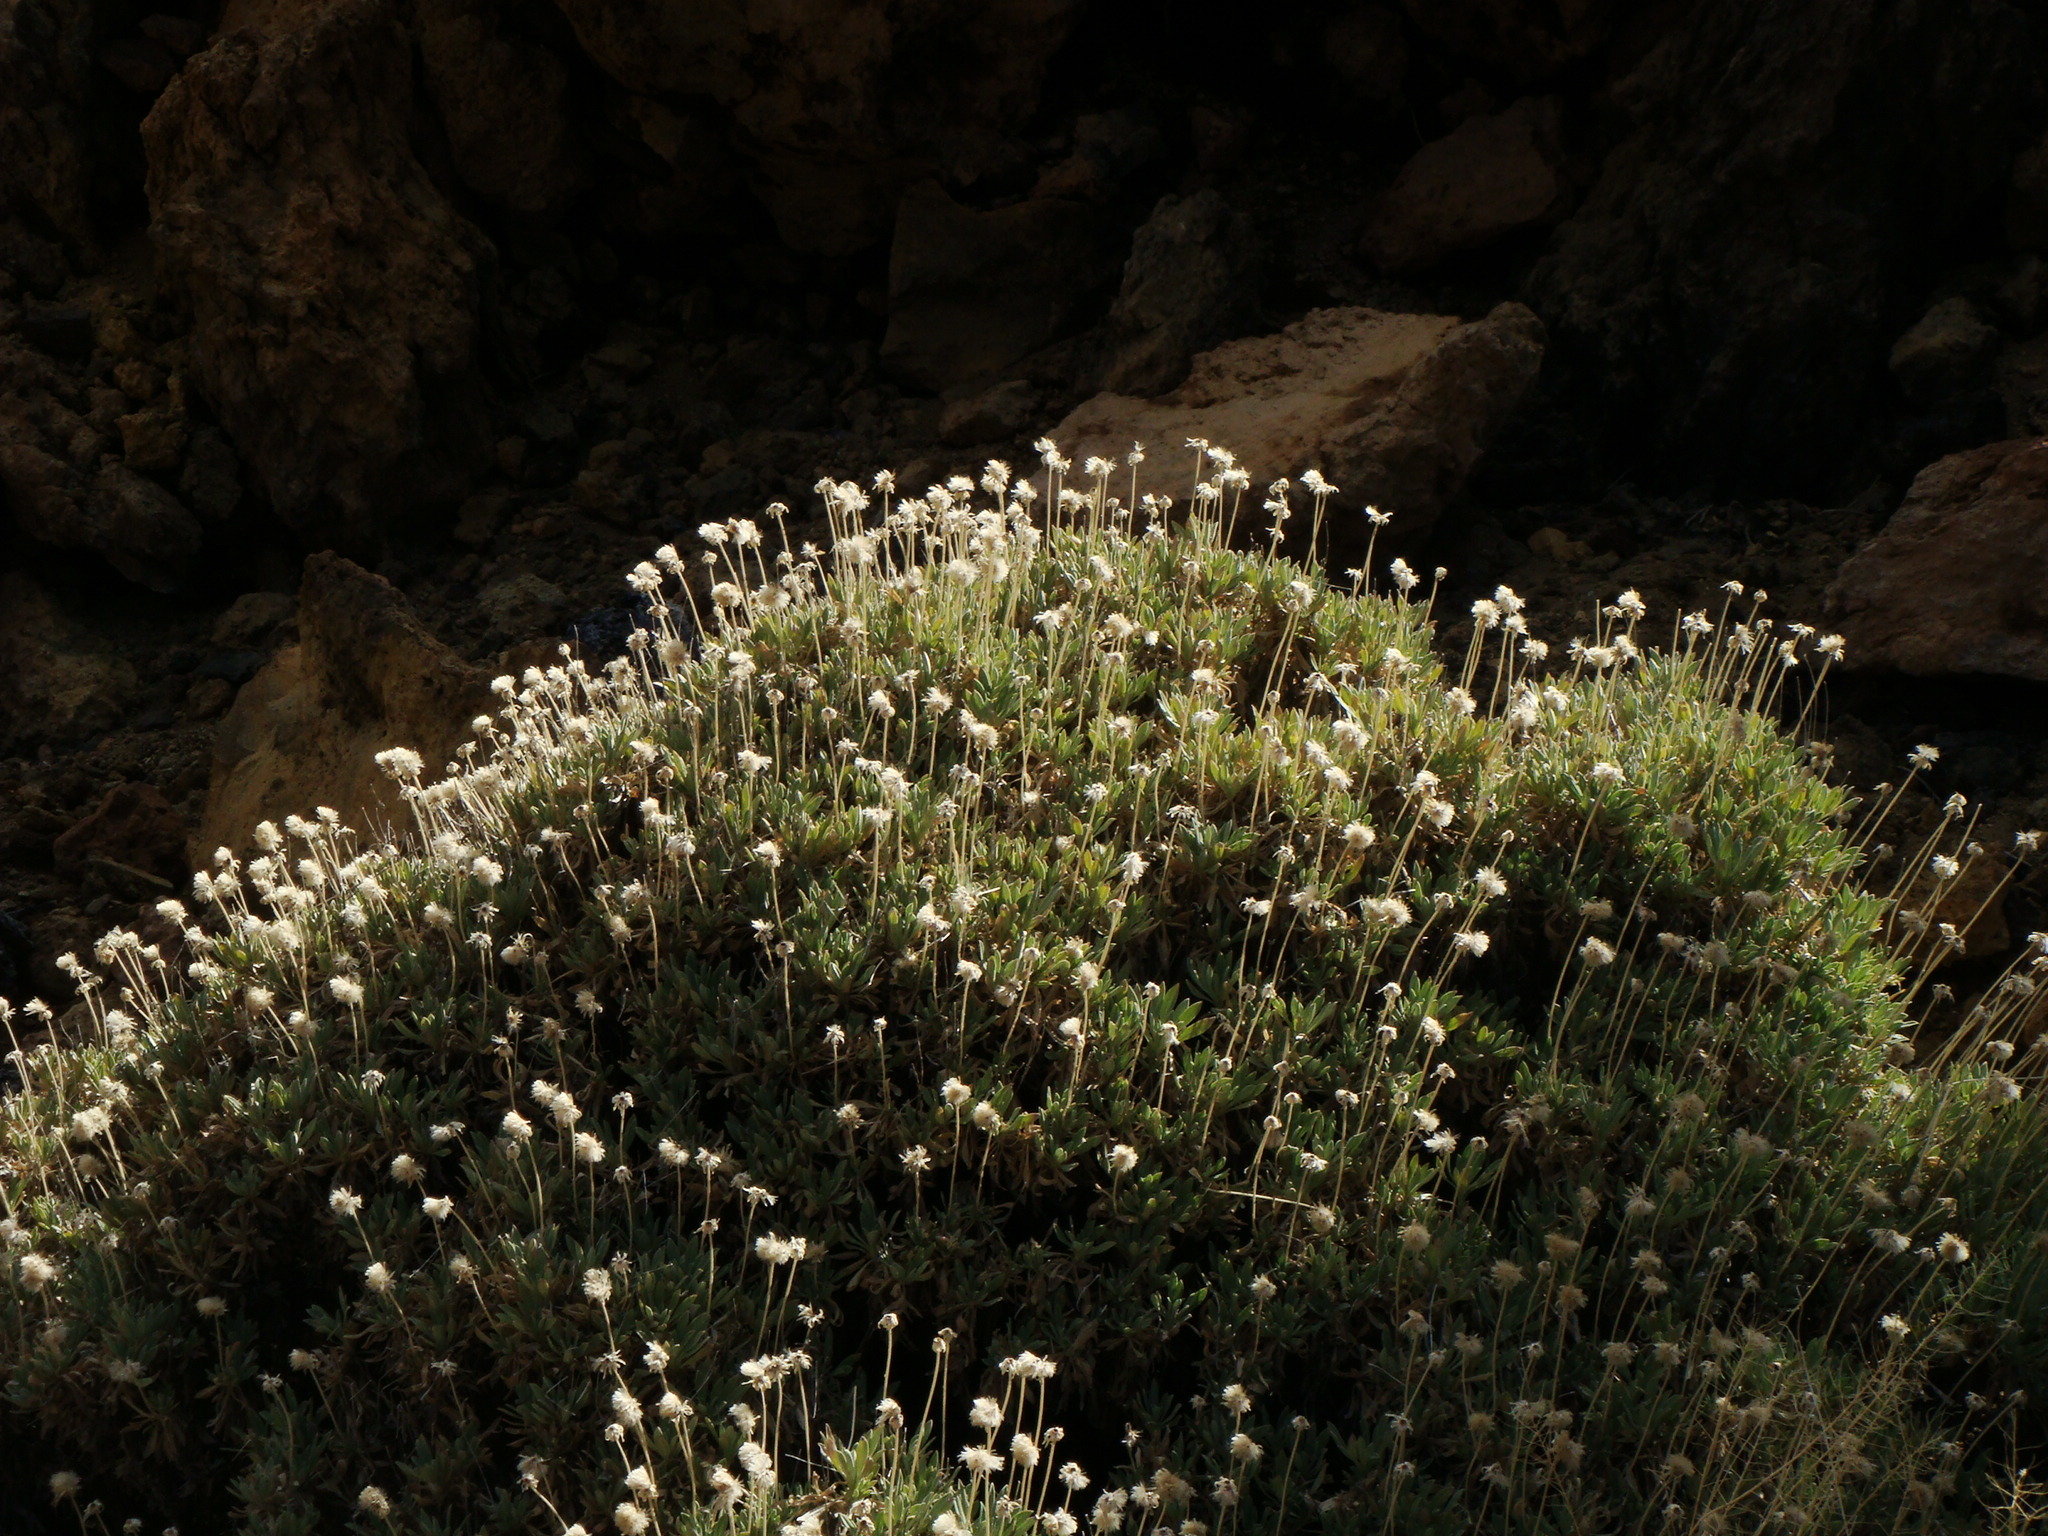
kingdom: Plantae
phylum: Tracheophyta
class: Magnoliopsida
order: Dipsacales
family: Caprifoliaceae
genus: Pterocephalus
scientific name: Pterocephalus lasiospermus
